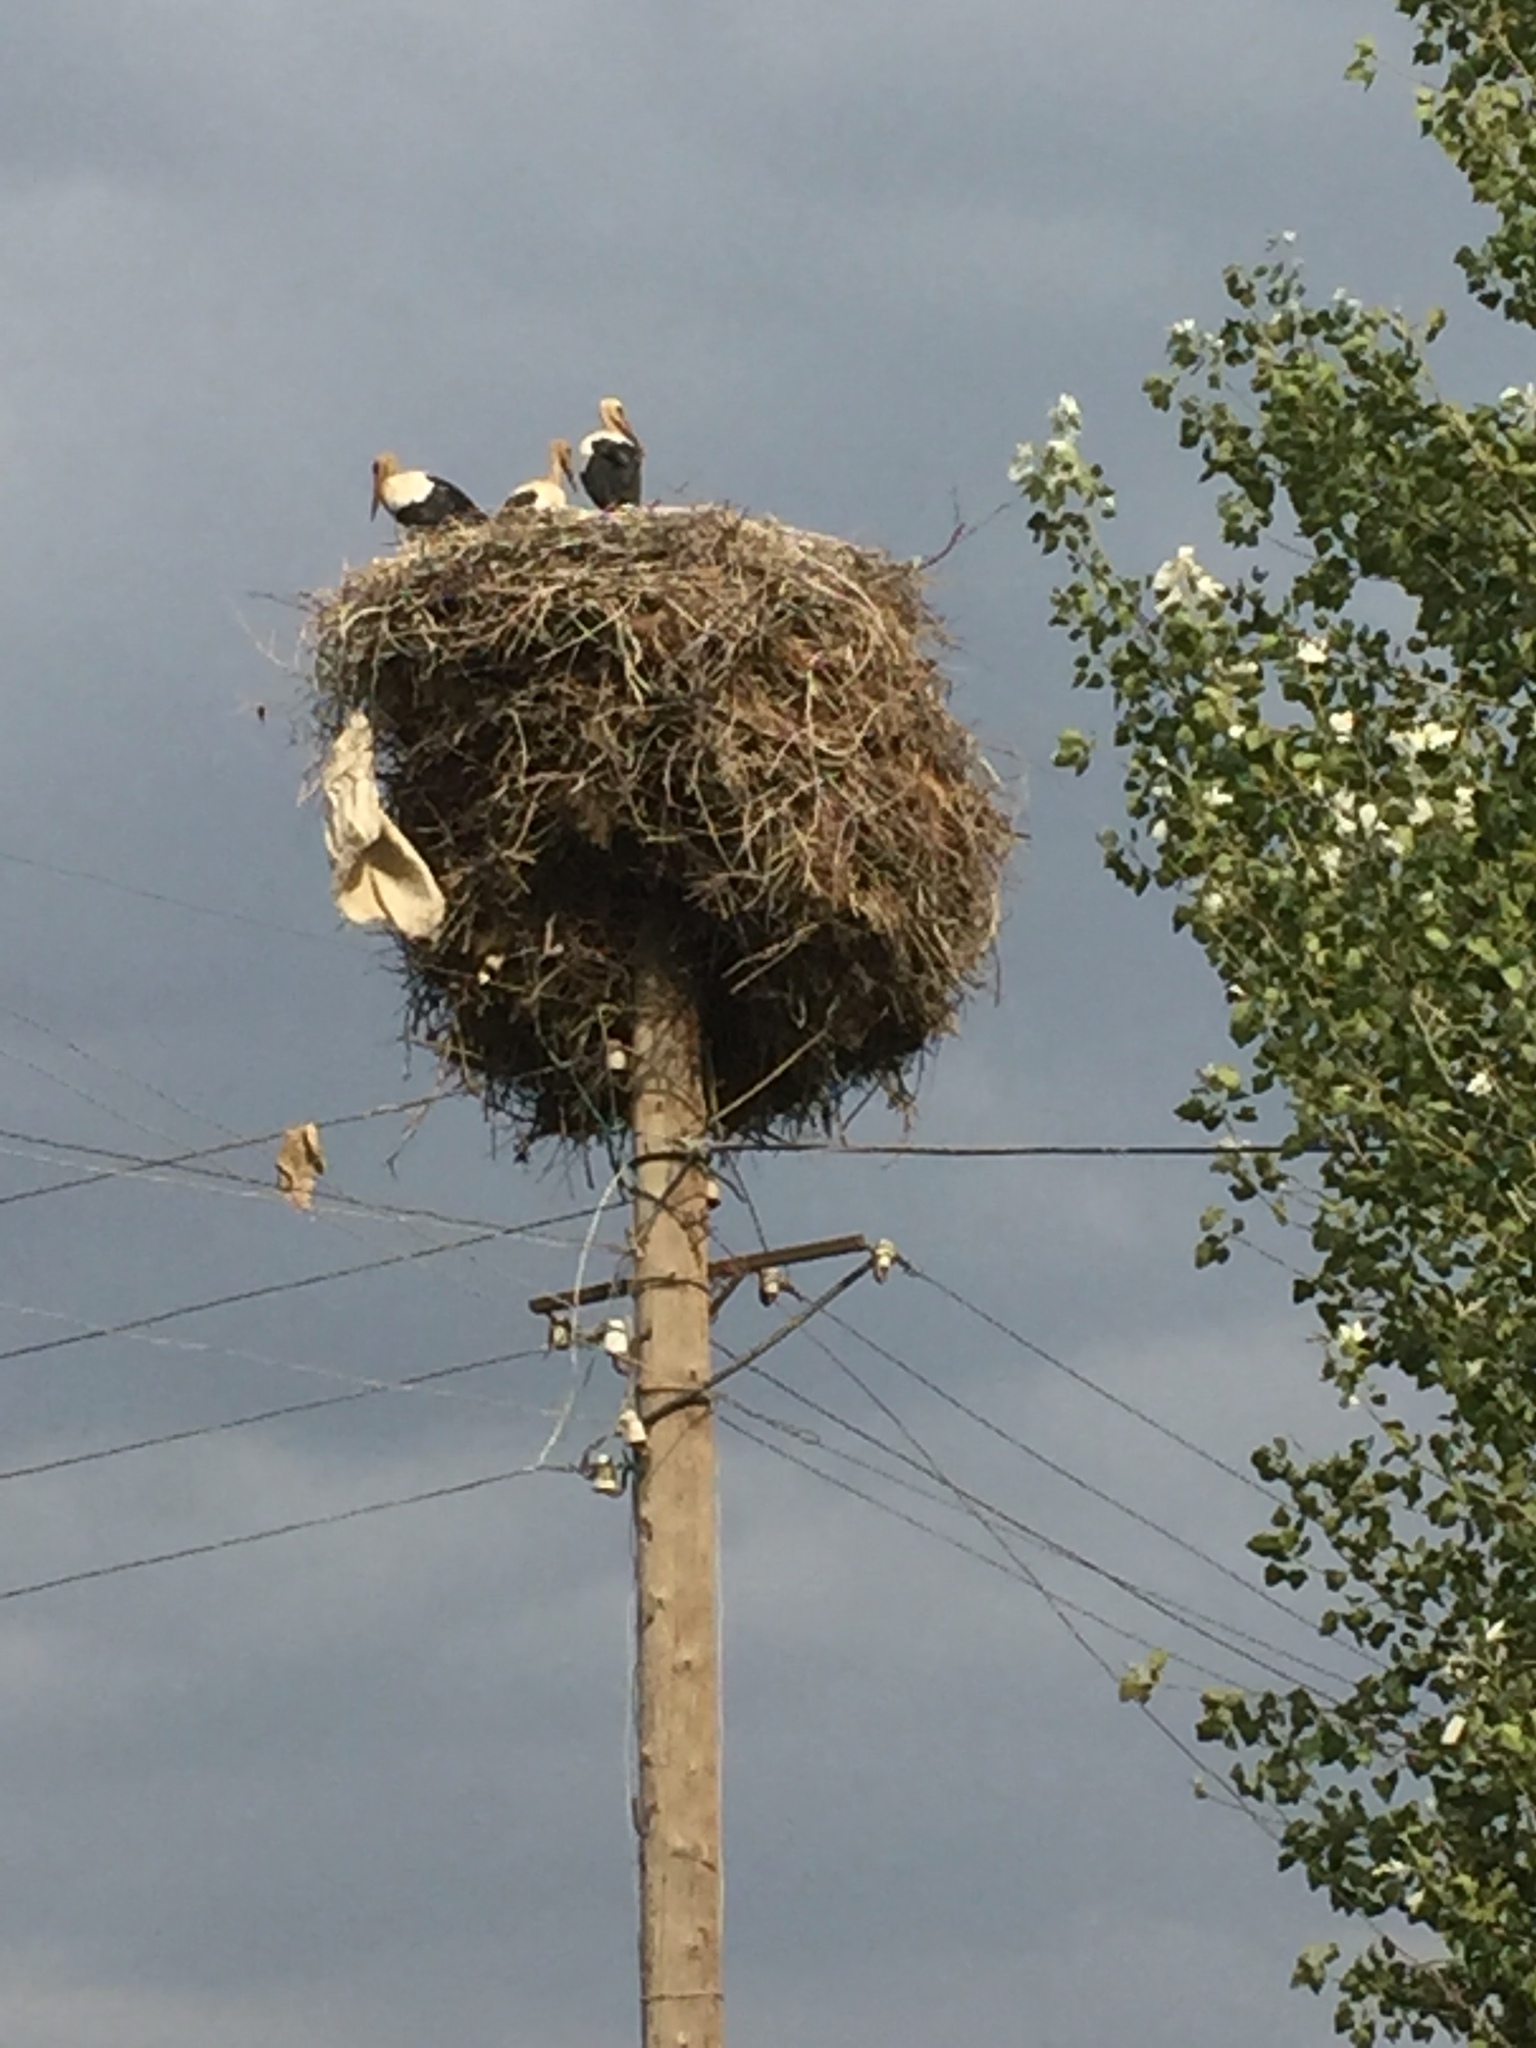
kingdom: Animalia
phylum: Chordata
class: Aves
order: Ciconiiformes
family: Ciconiidae
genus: Ciconia
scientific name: Ciconia ciconia
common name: White stork
